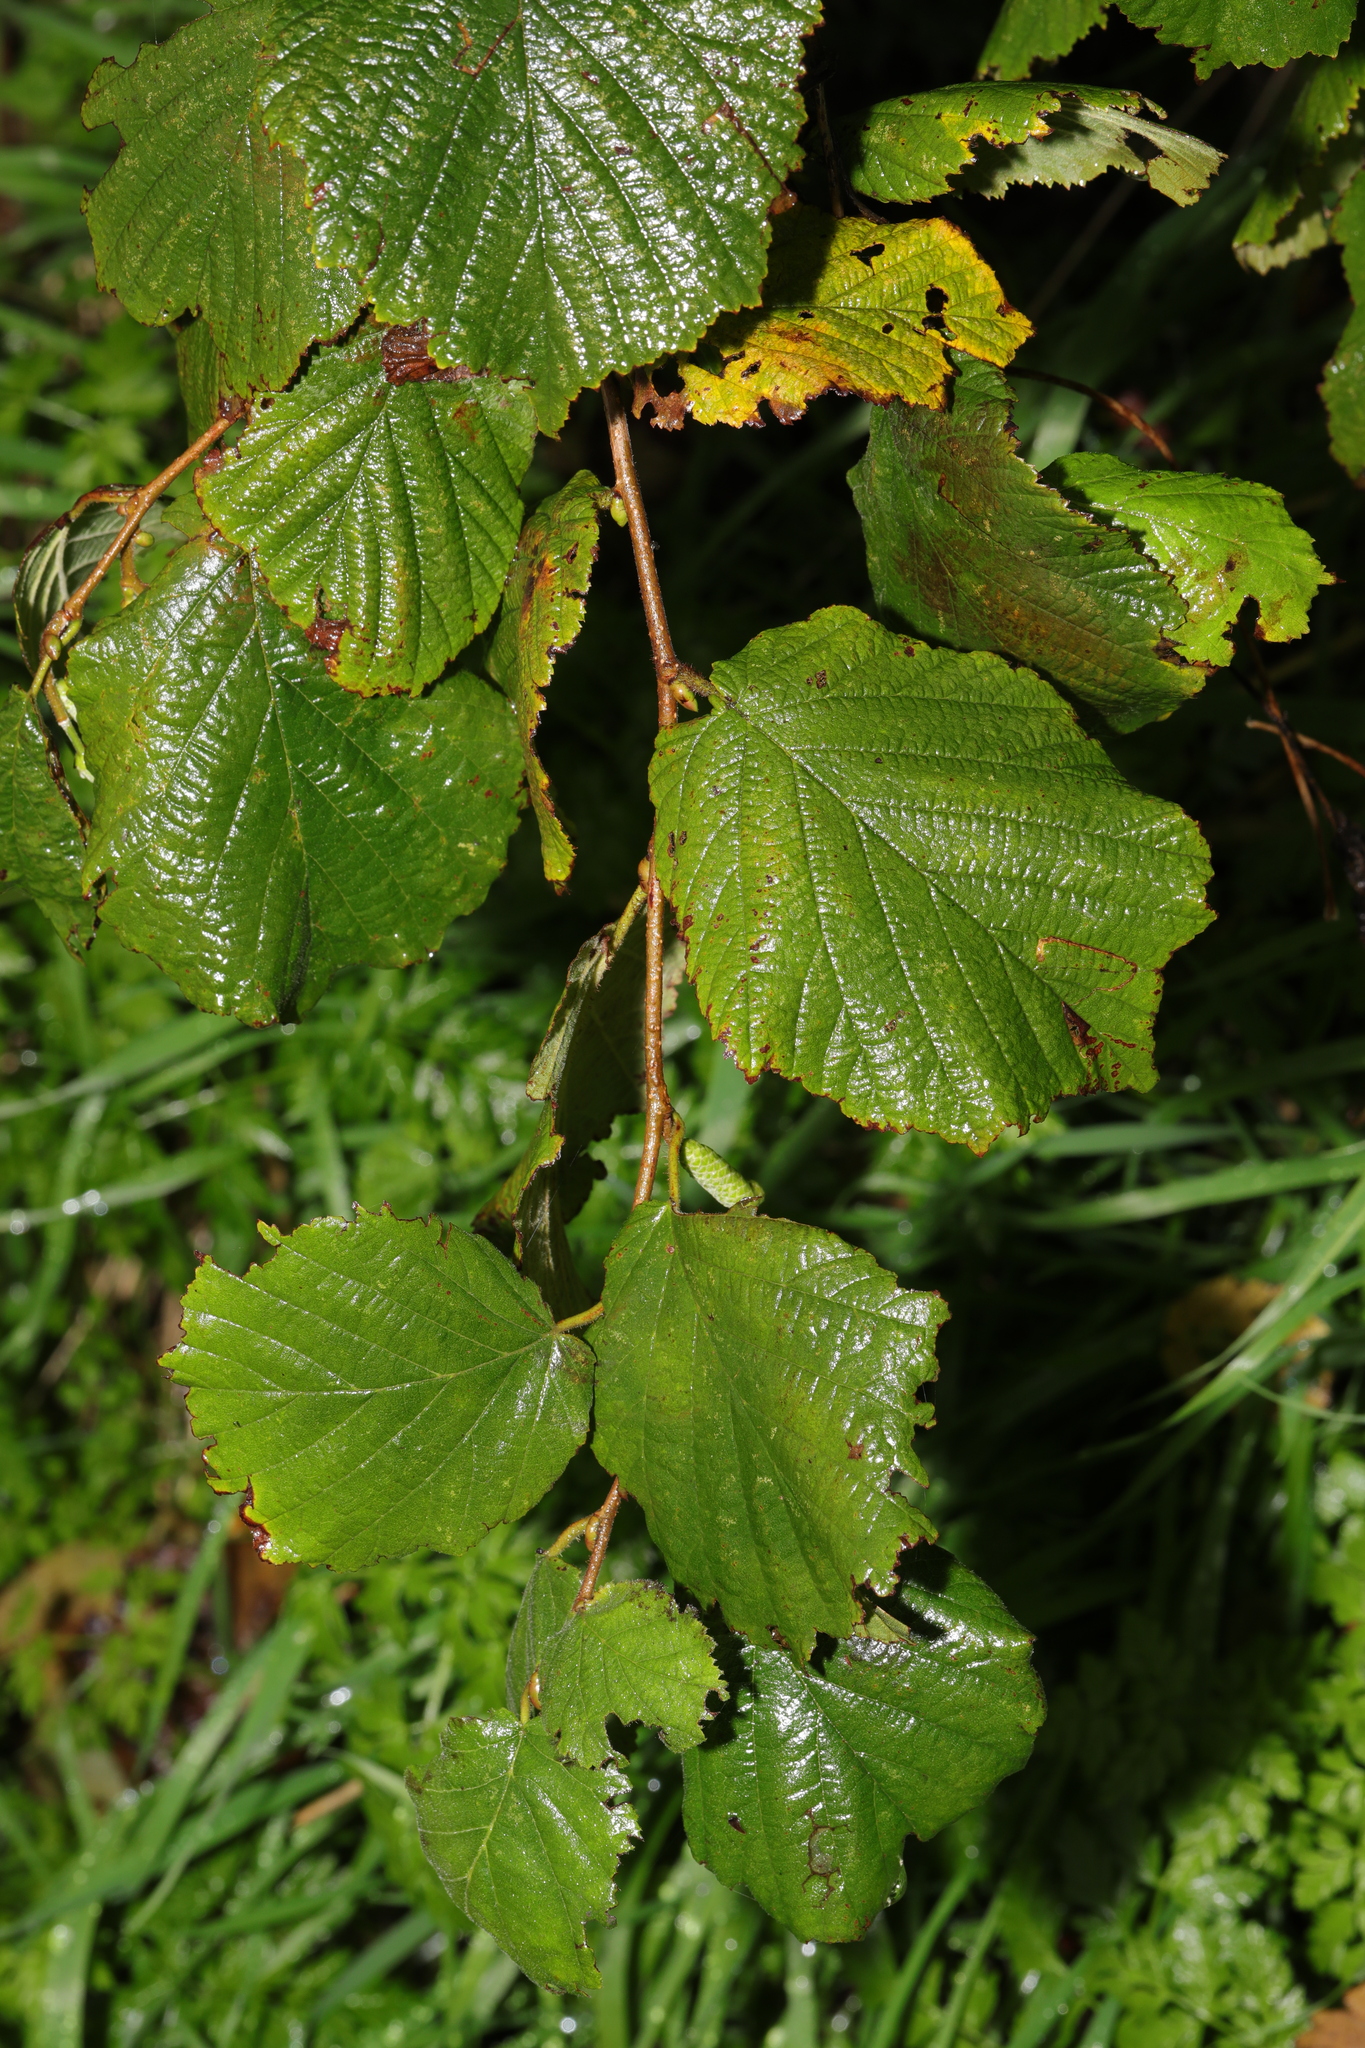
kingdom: Plantae
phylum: Tracheophyta
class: Magnoliopsida
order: Fagales
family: Betulaceae
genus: Corylus
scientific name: Corylus avellana
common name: European hazel
